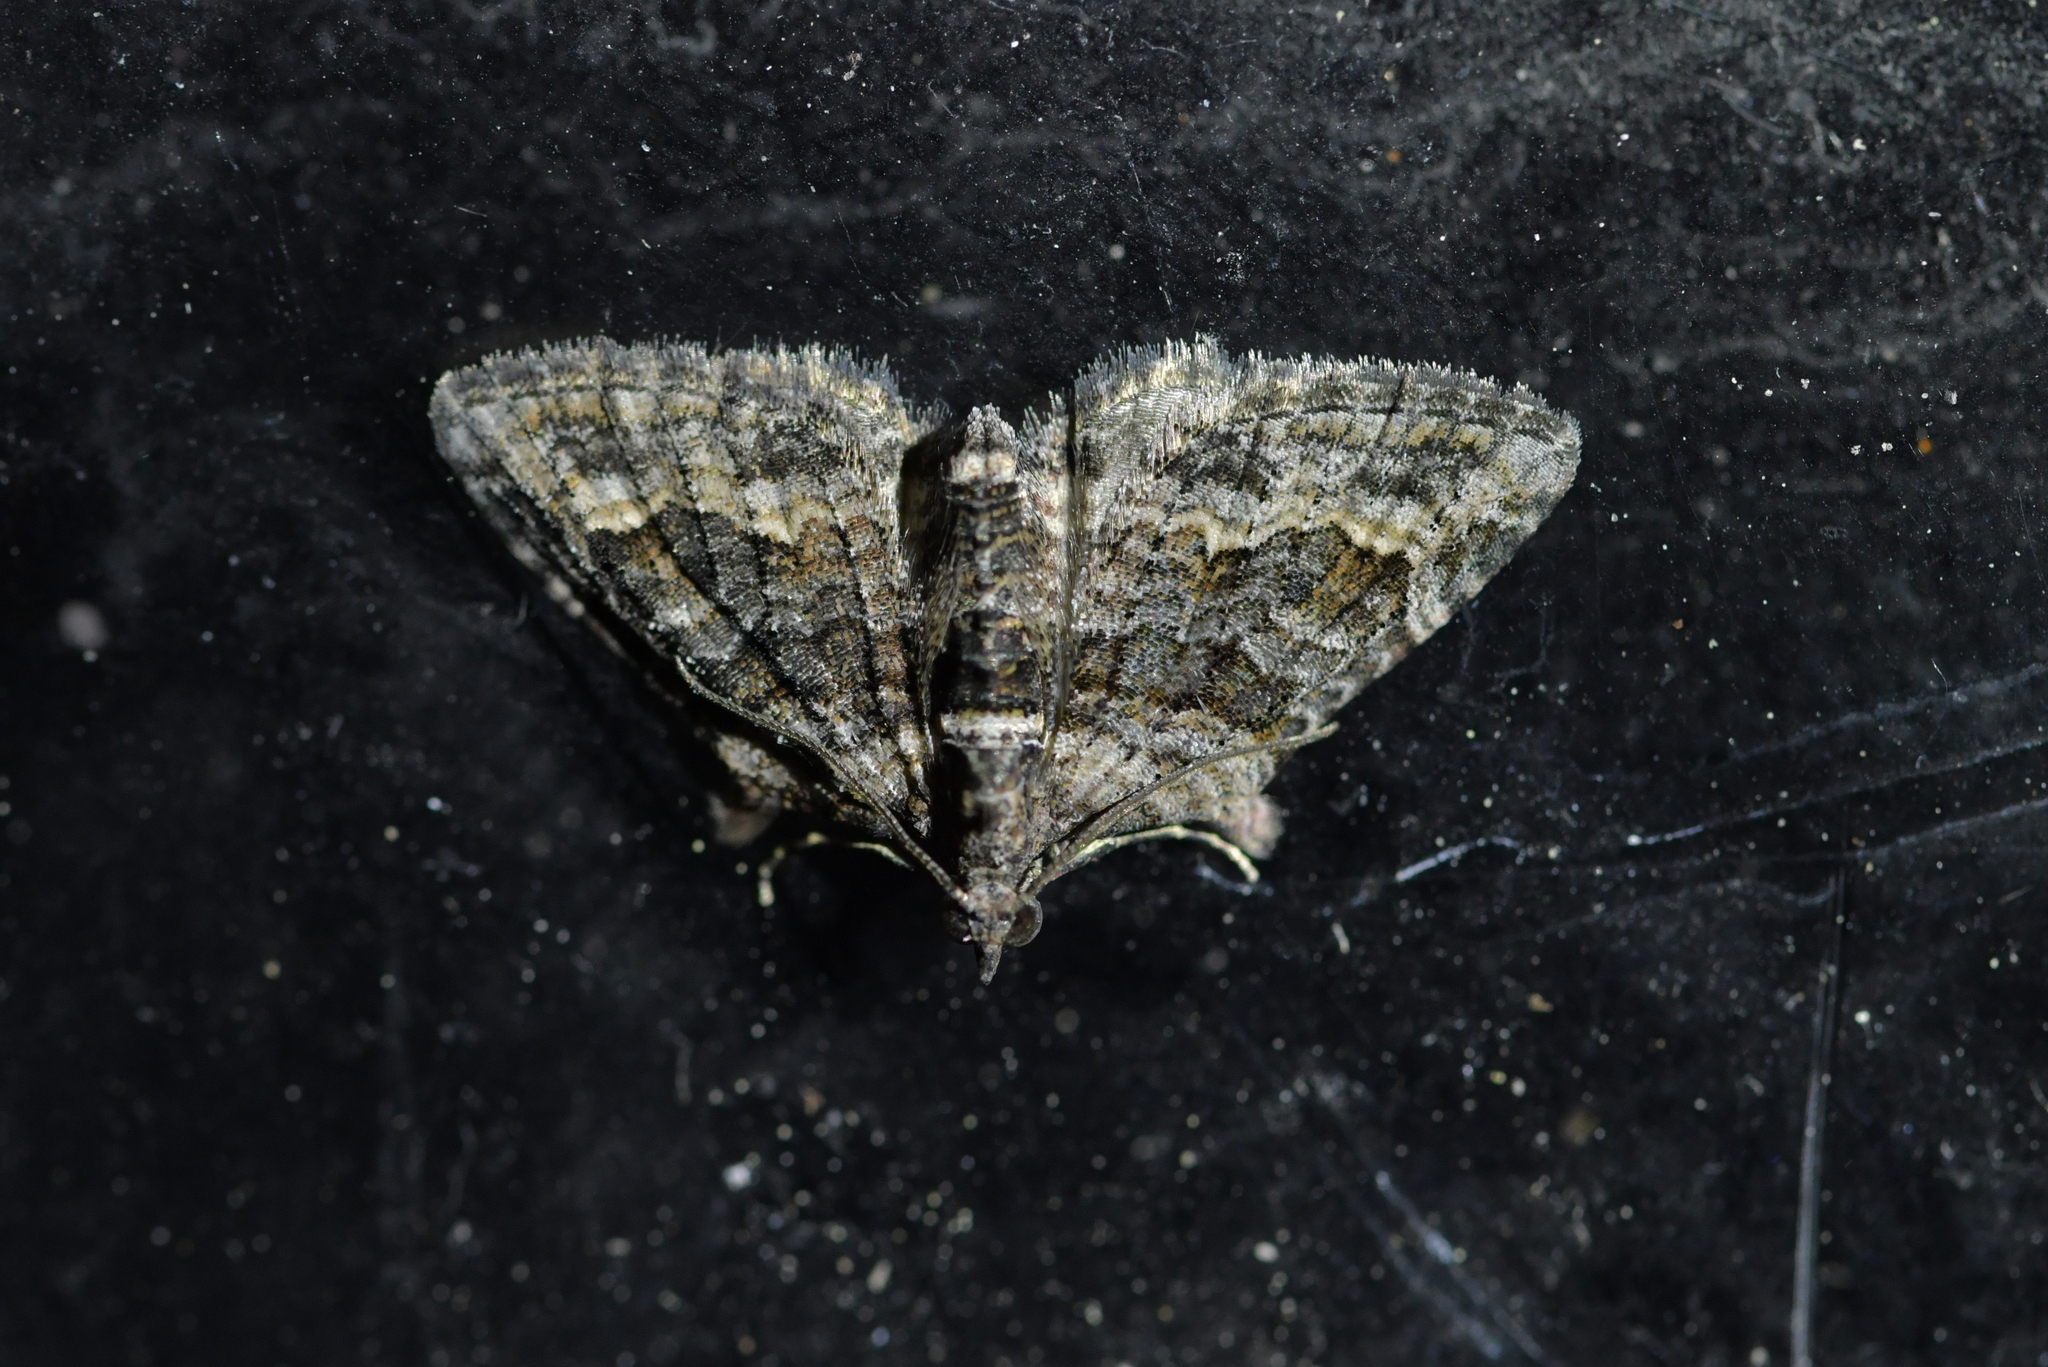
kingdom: Animalia
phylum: Arthropoda
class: Insecta
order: Lepidoptera
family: Geometridae
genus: Phrissogonus
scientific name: Phrissogonus laticostata
